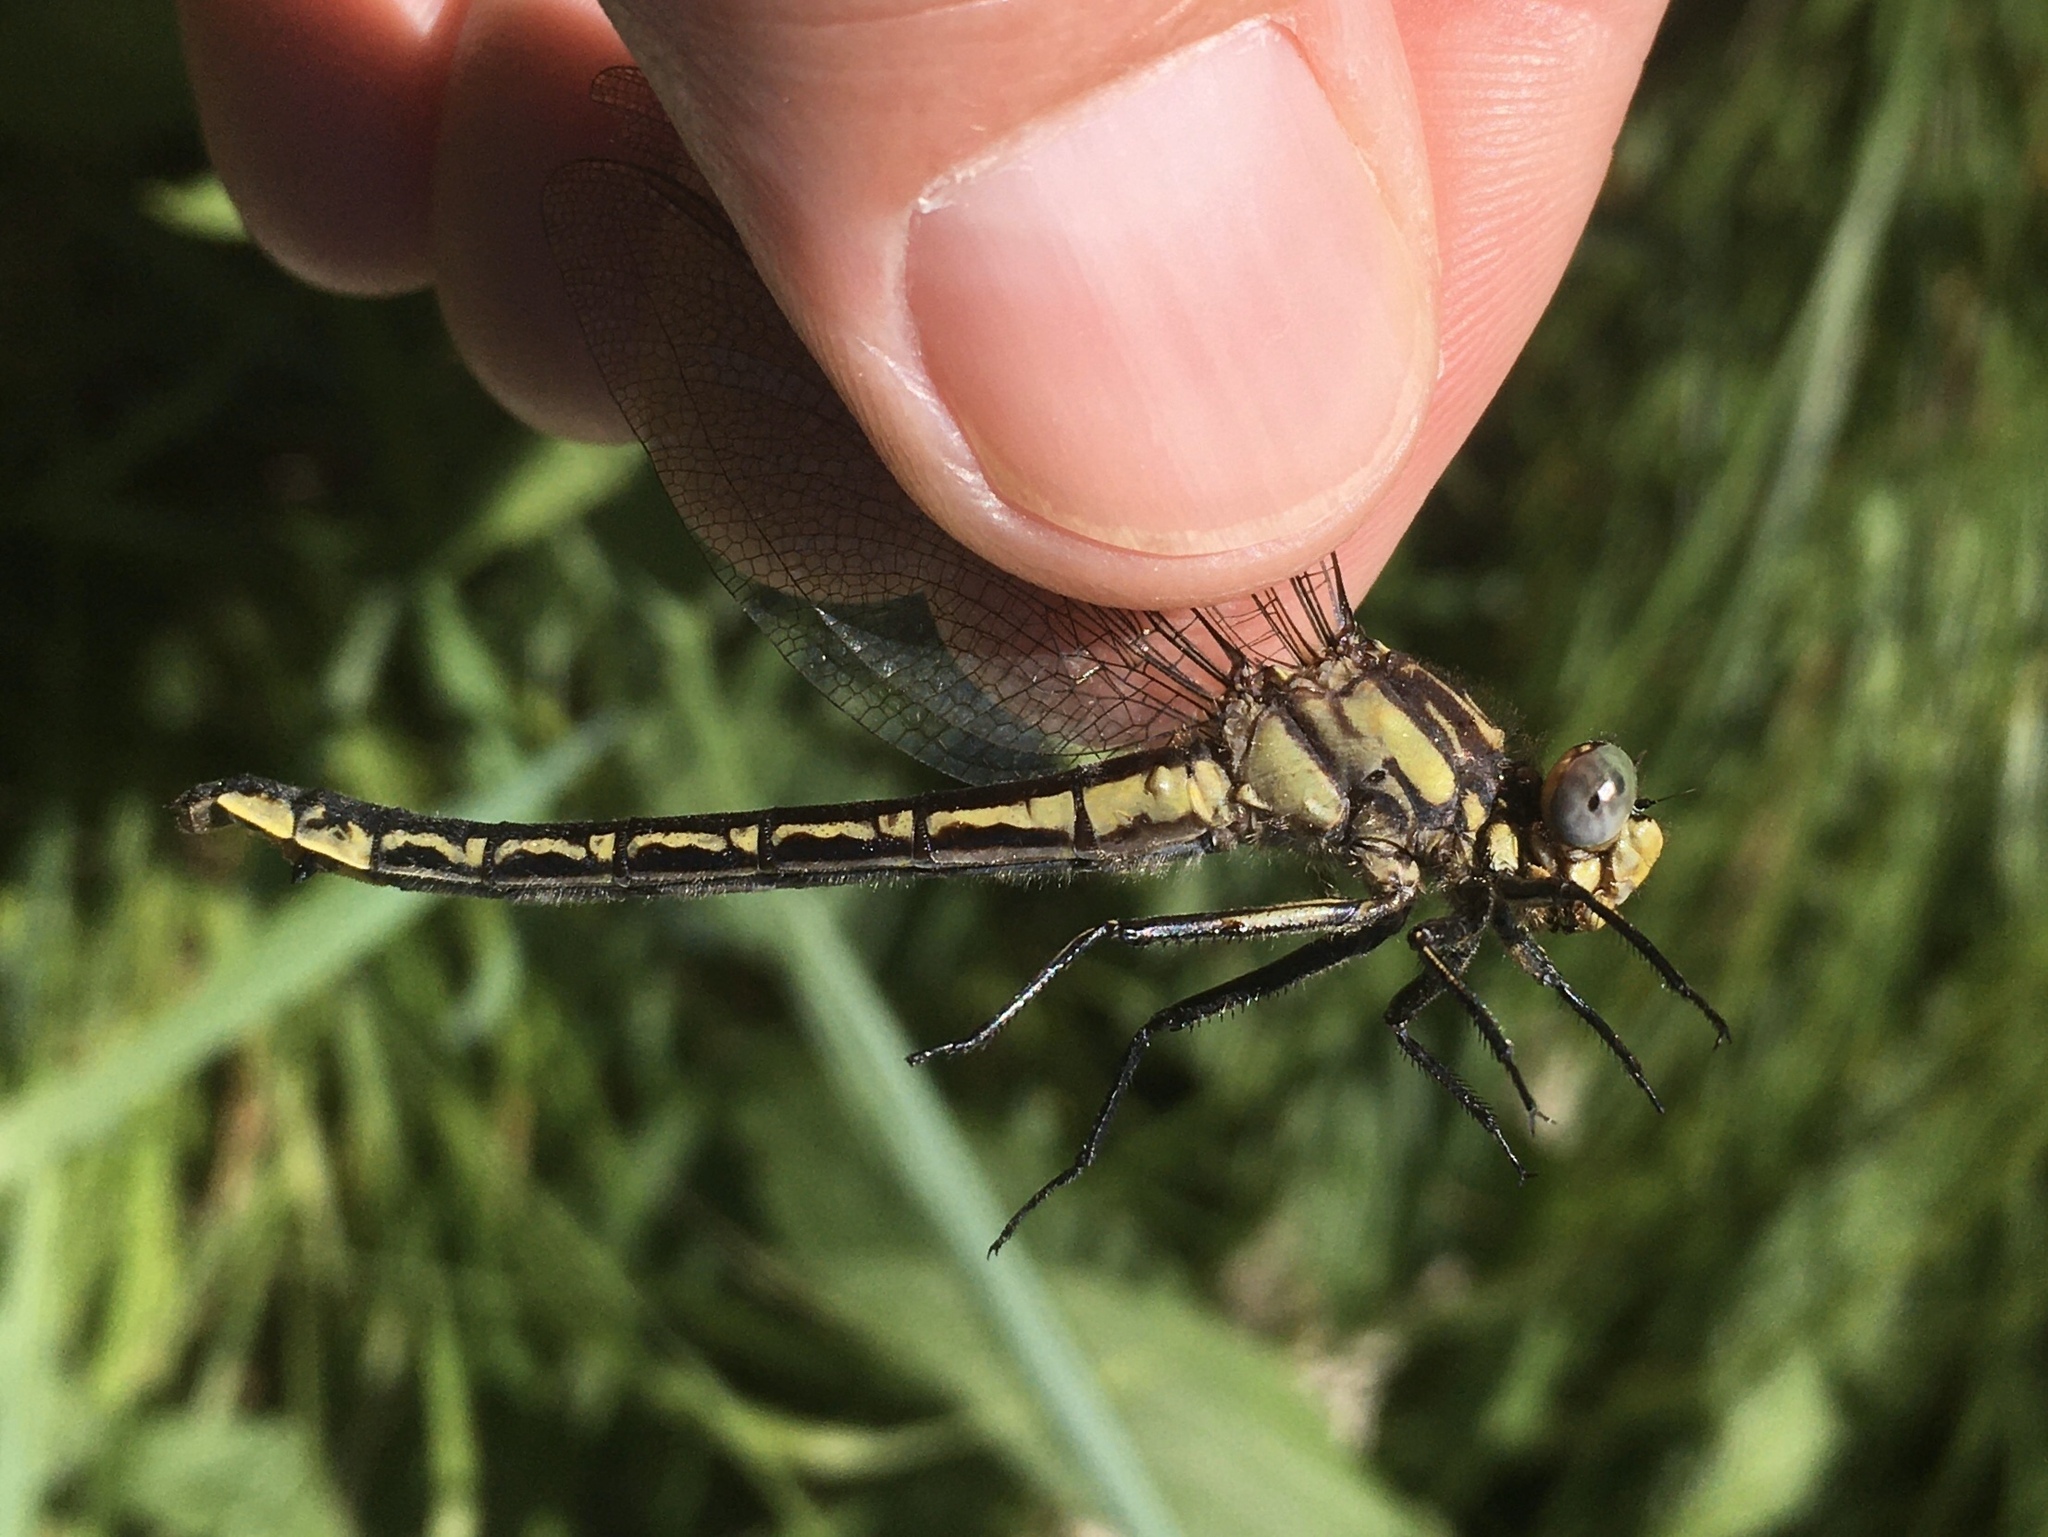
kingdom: Animalia
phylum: Arthropoda
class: Insecta
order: Odonata
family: Gomphidae
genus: Phanogomphus
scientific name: Phanogomphus descriptus
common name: Harpoon clubtail
